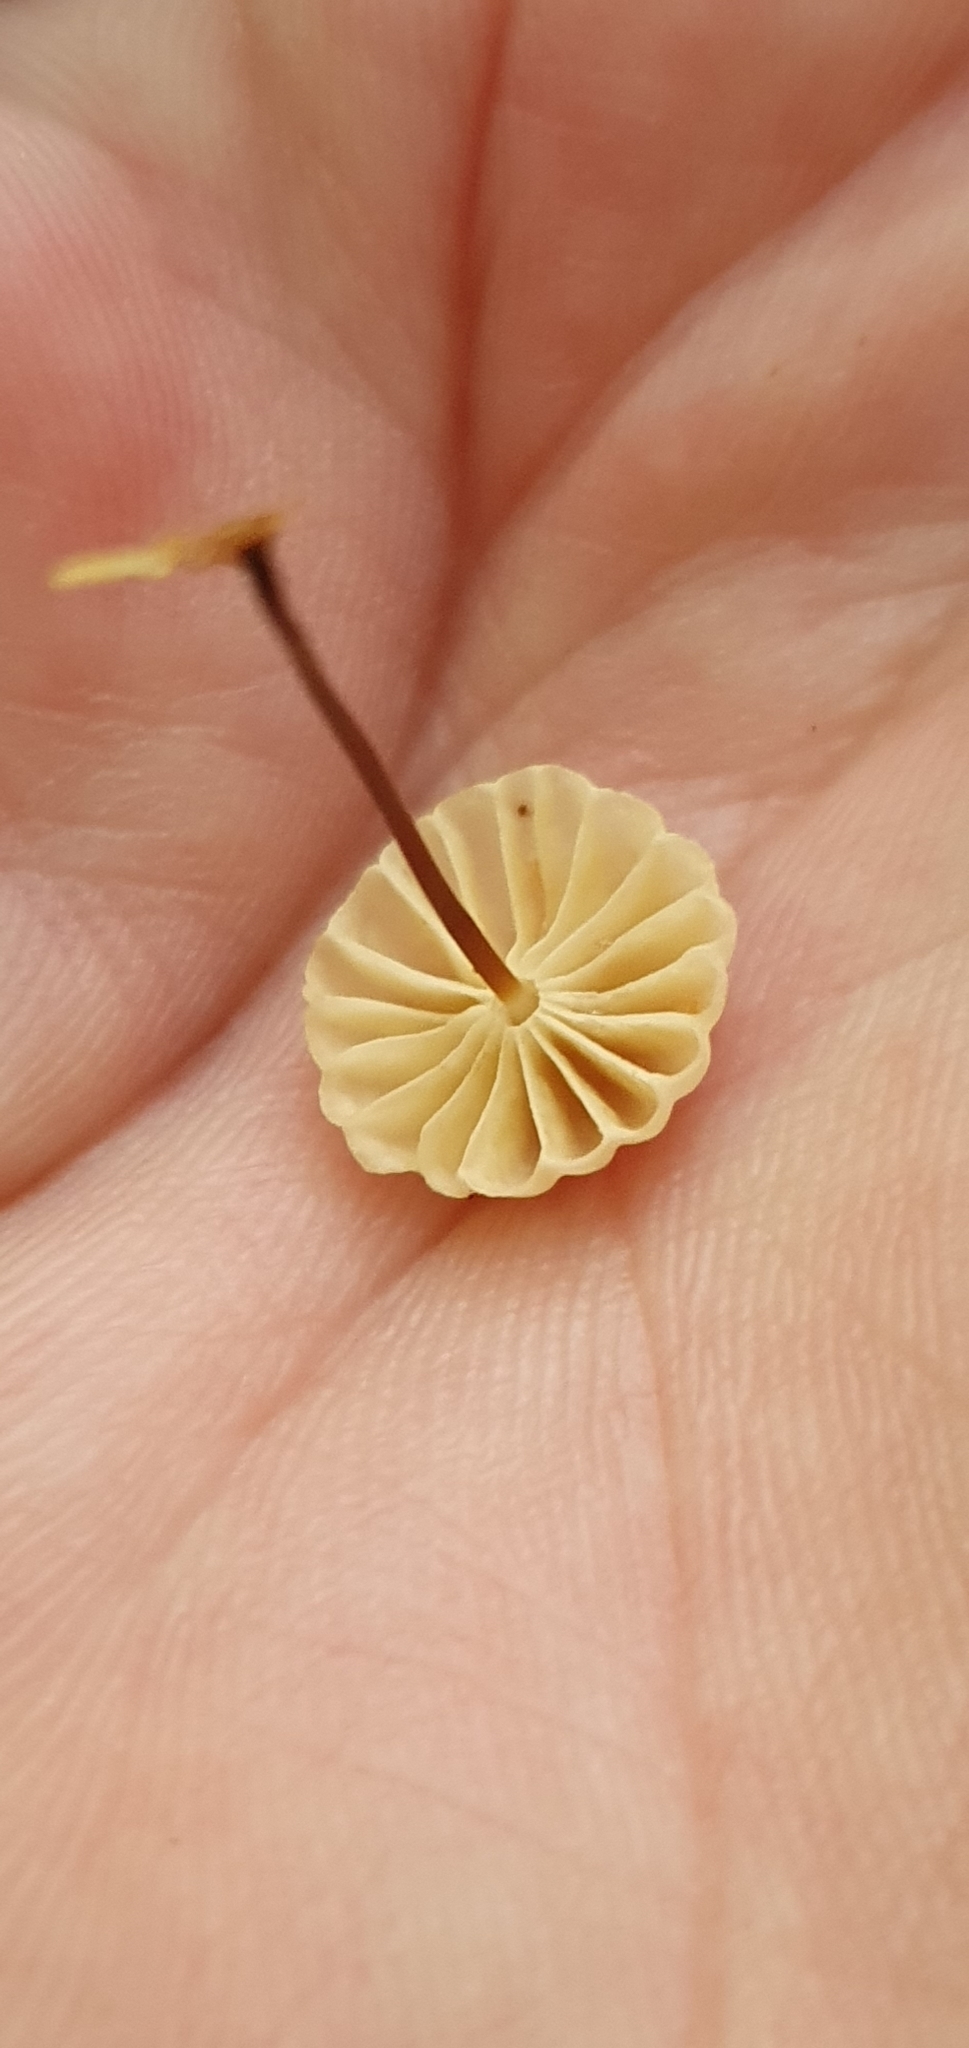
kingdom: Fungi
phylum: Basidiomycota
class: Agaricomycetes
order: Agaricales
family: Marasmiaceae
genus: Marasmius
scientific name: Marasmius rotula
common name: Collared parachute
